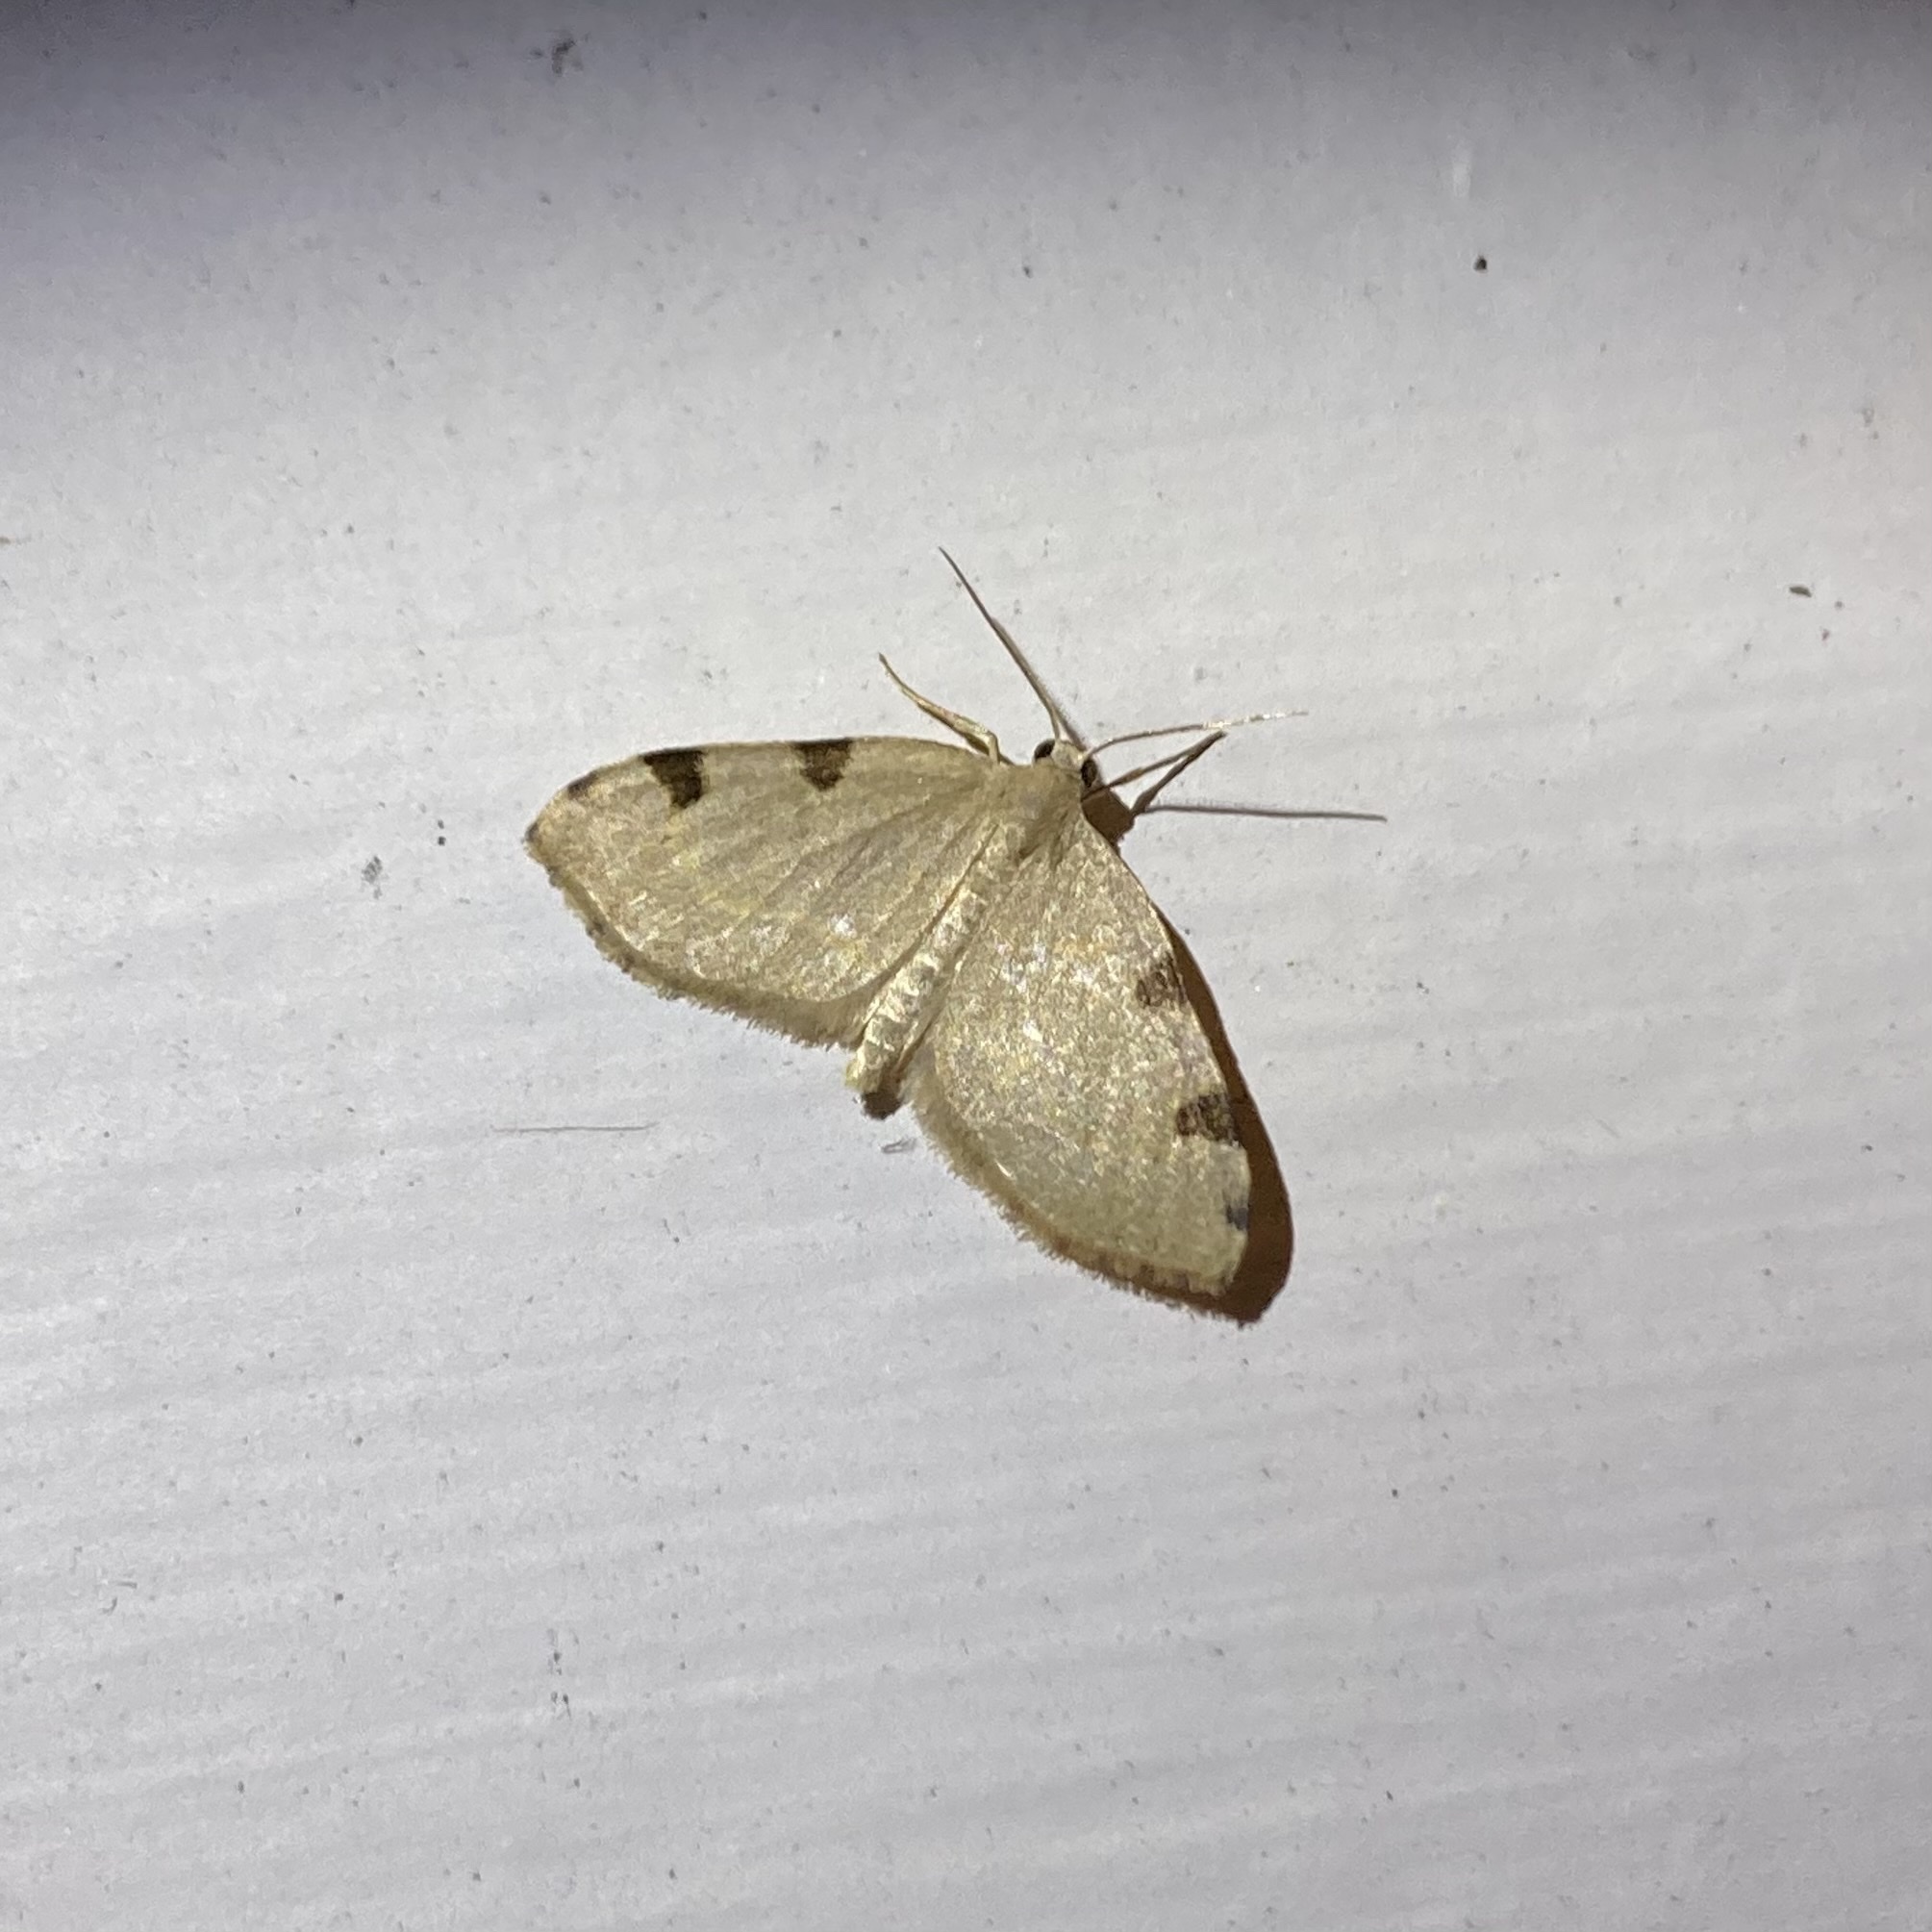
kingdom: Animalia
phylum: Arthropoda
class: Insecta
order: Lepidoptera
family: Geometridae
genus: Heterophleps
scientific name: Heterophleps triguttaria
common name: Three-spotted fillip
